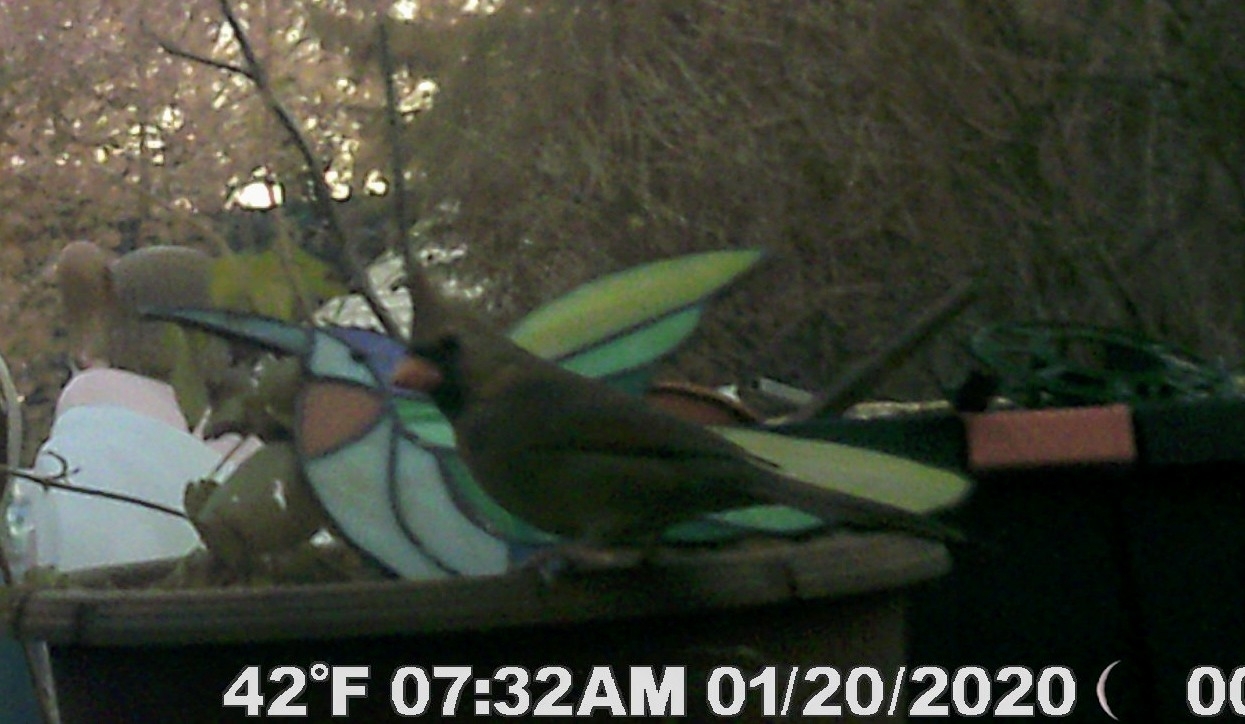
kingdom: Animalia
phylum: Chordata
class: Aves
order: Passeriformes
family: Cardinalidae
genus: Cardinalis
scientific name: Cardinalis cardinalis
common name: Northern cardinal
